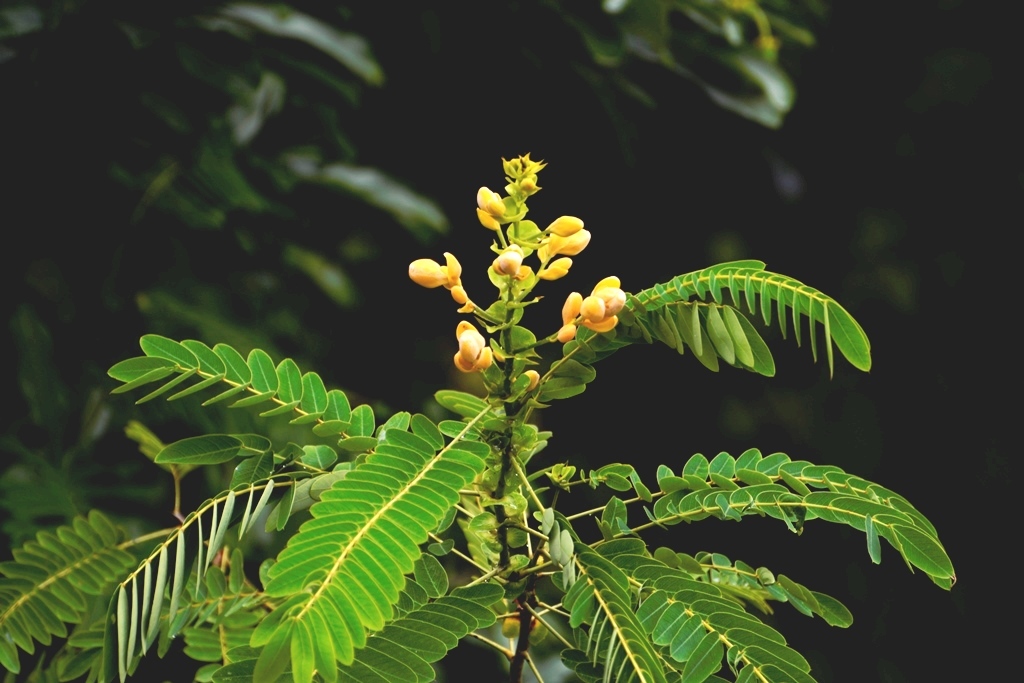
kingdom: Plantae
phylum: Tracheophyta
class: Magnoliopsida
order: Fabales
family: Fabaceae
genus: Senna
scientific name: Senna reticulata
